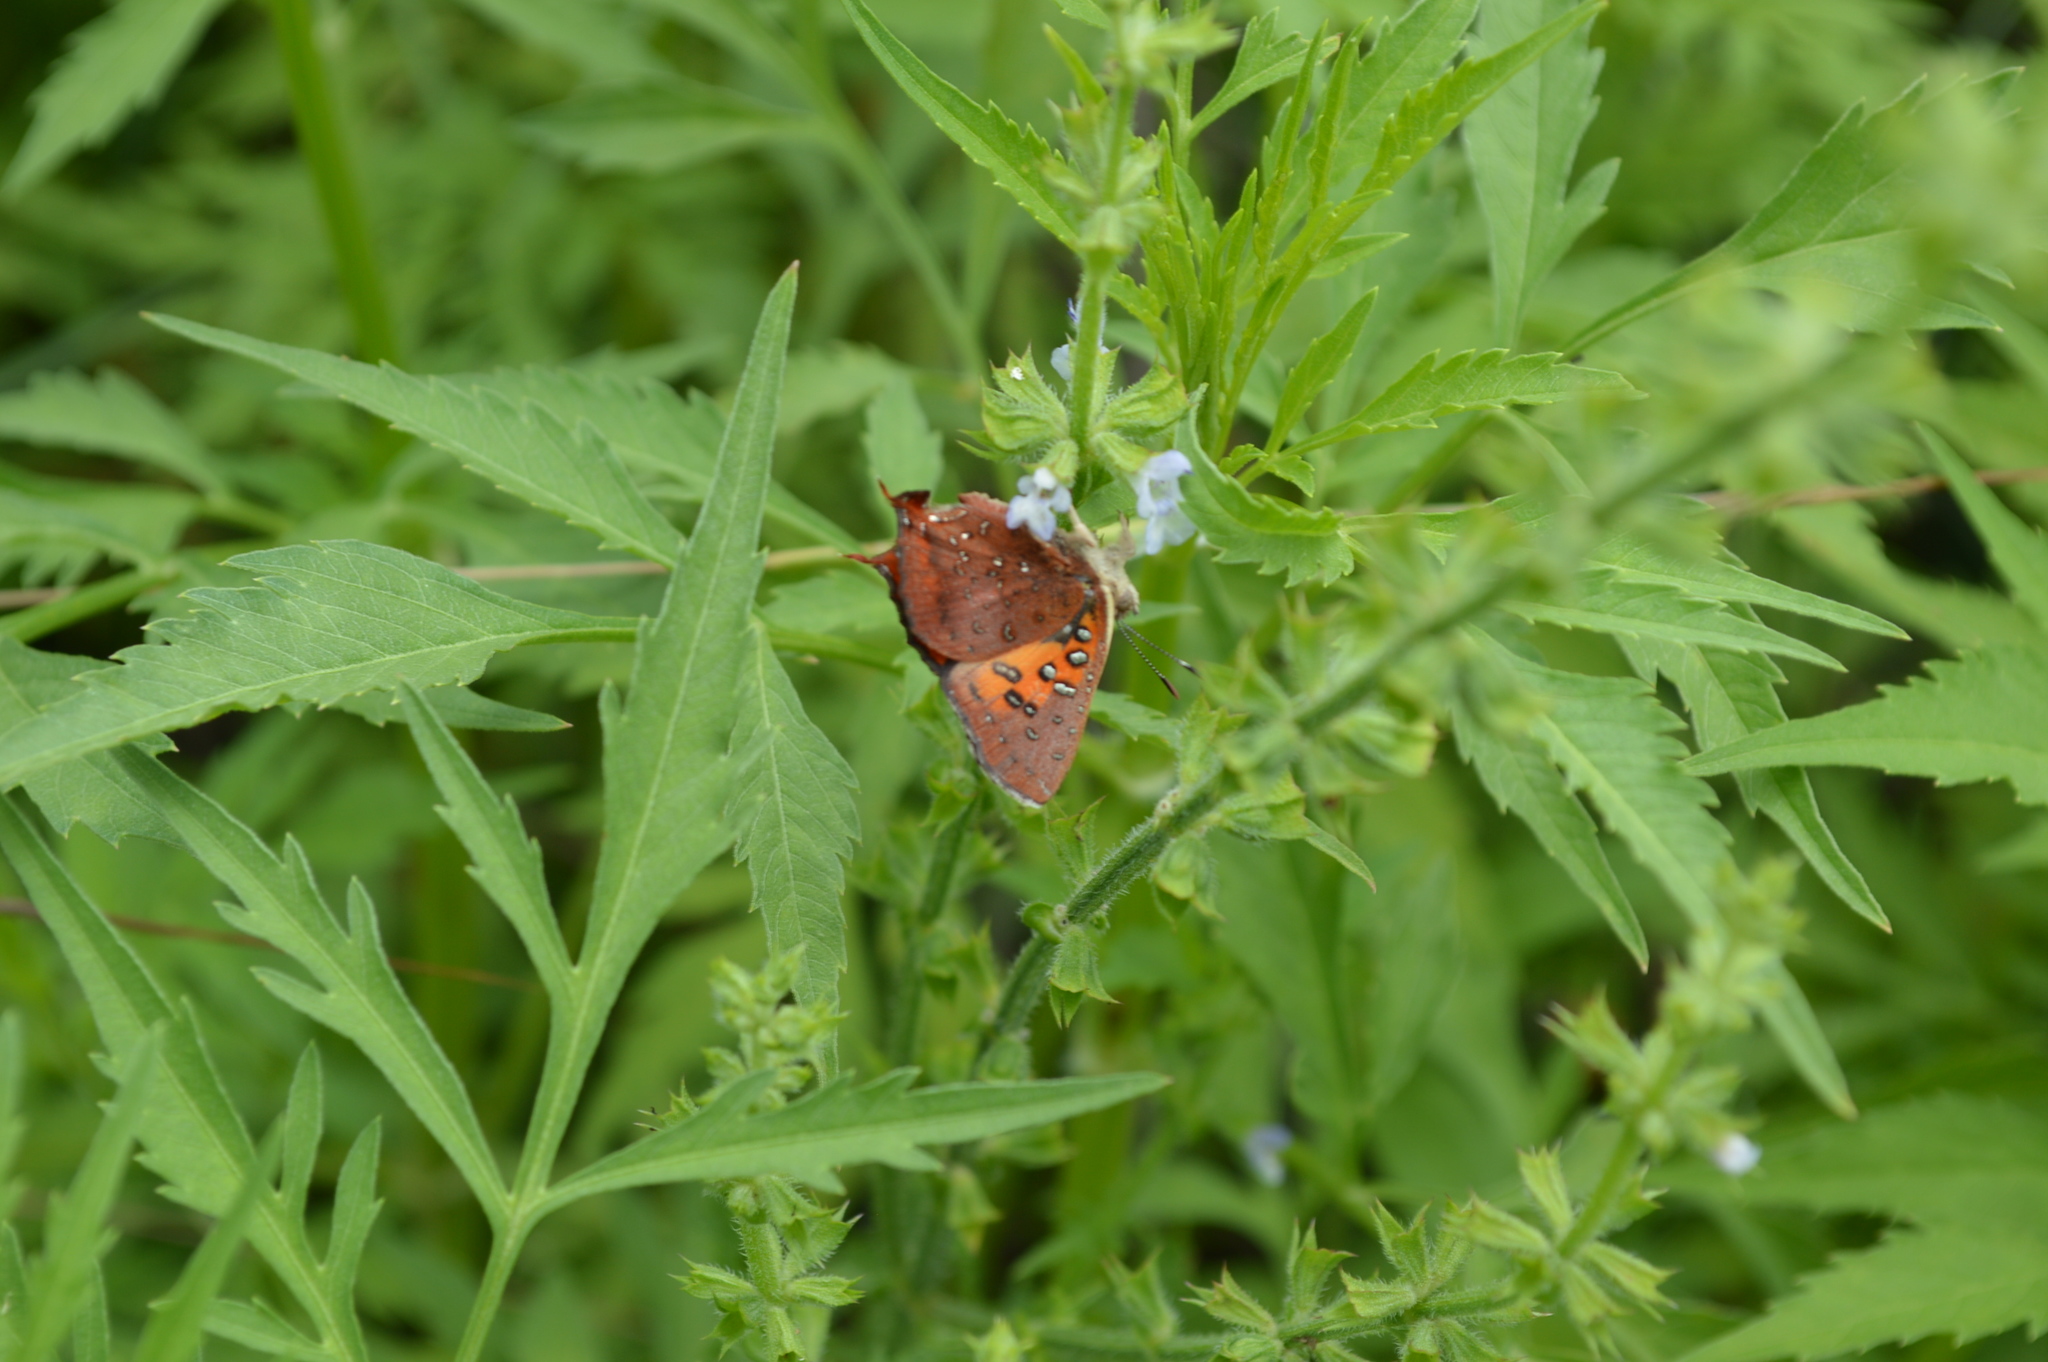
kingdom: Animalia
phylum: Arthropoda
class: Insecta
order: Lepidoptera
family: Lycaenidae
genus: Axiocerses
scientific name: Axiocerses perion
